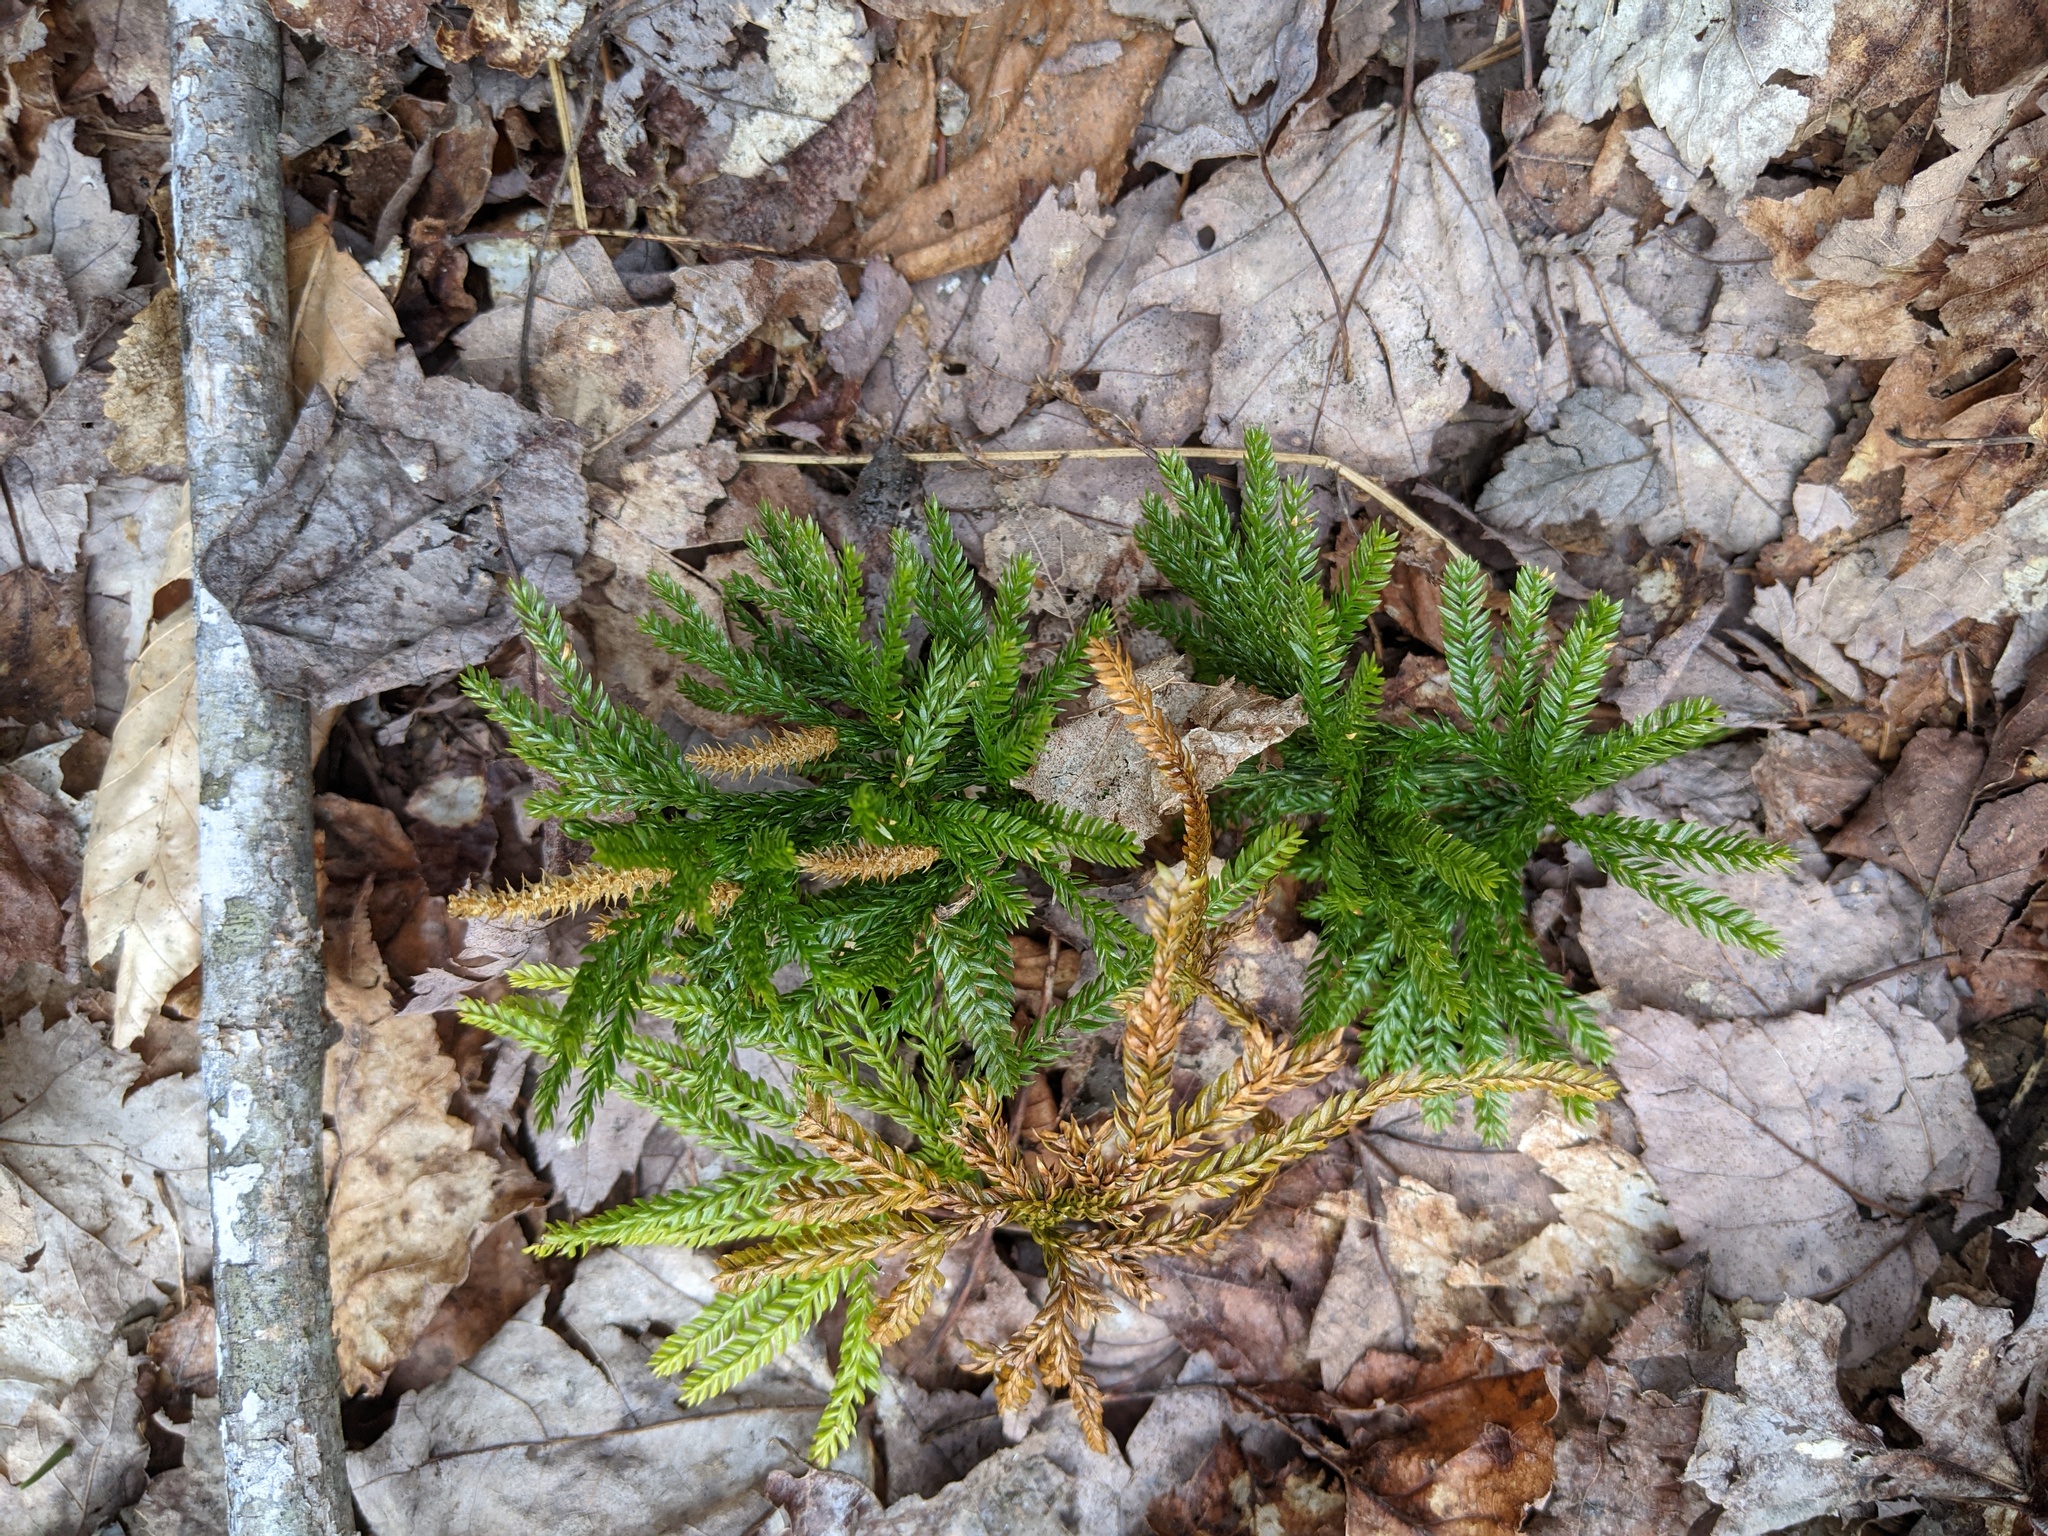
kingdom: Plantae
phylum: Tracheophyta
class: Lycopodiopsida
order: Lycopodiales
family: Lycopodiaceae
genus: Dendrolycopodium
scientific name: Dendrolycopodium obscurum
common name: Common ground-pine
